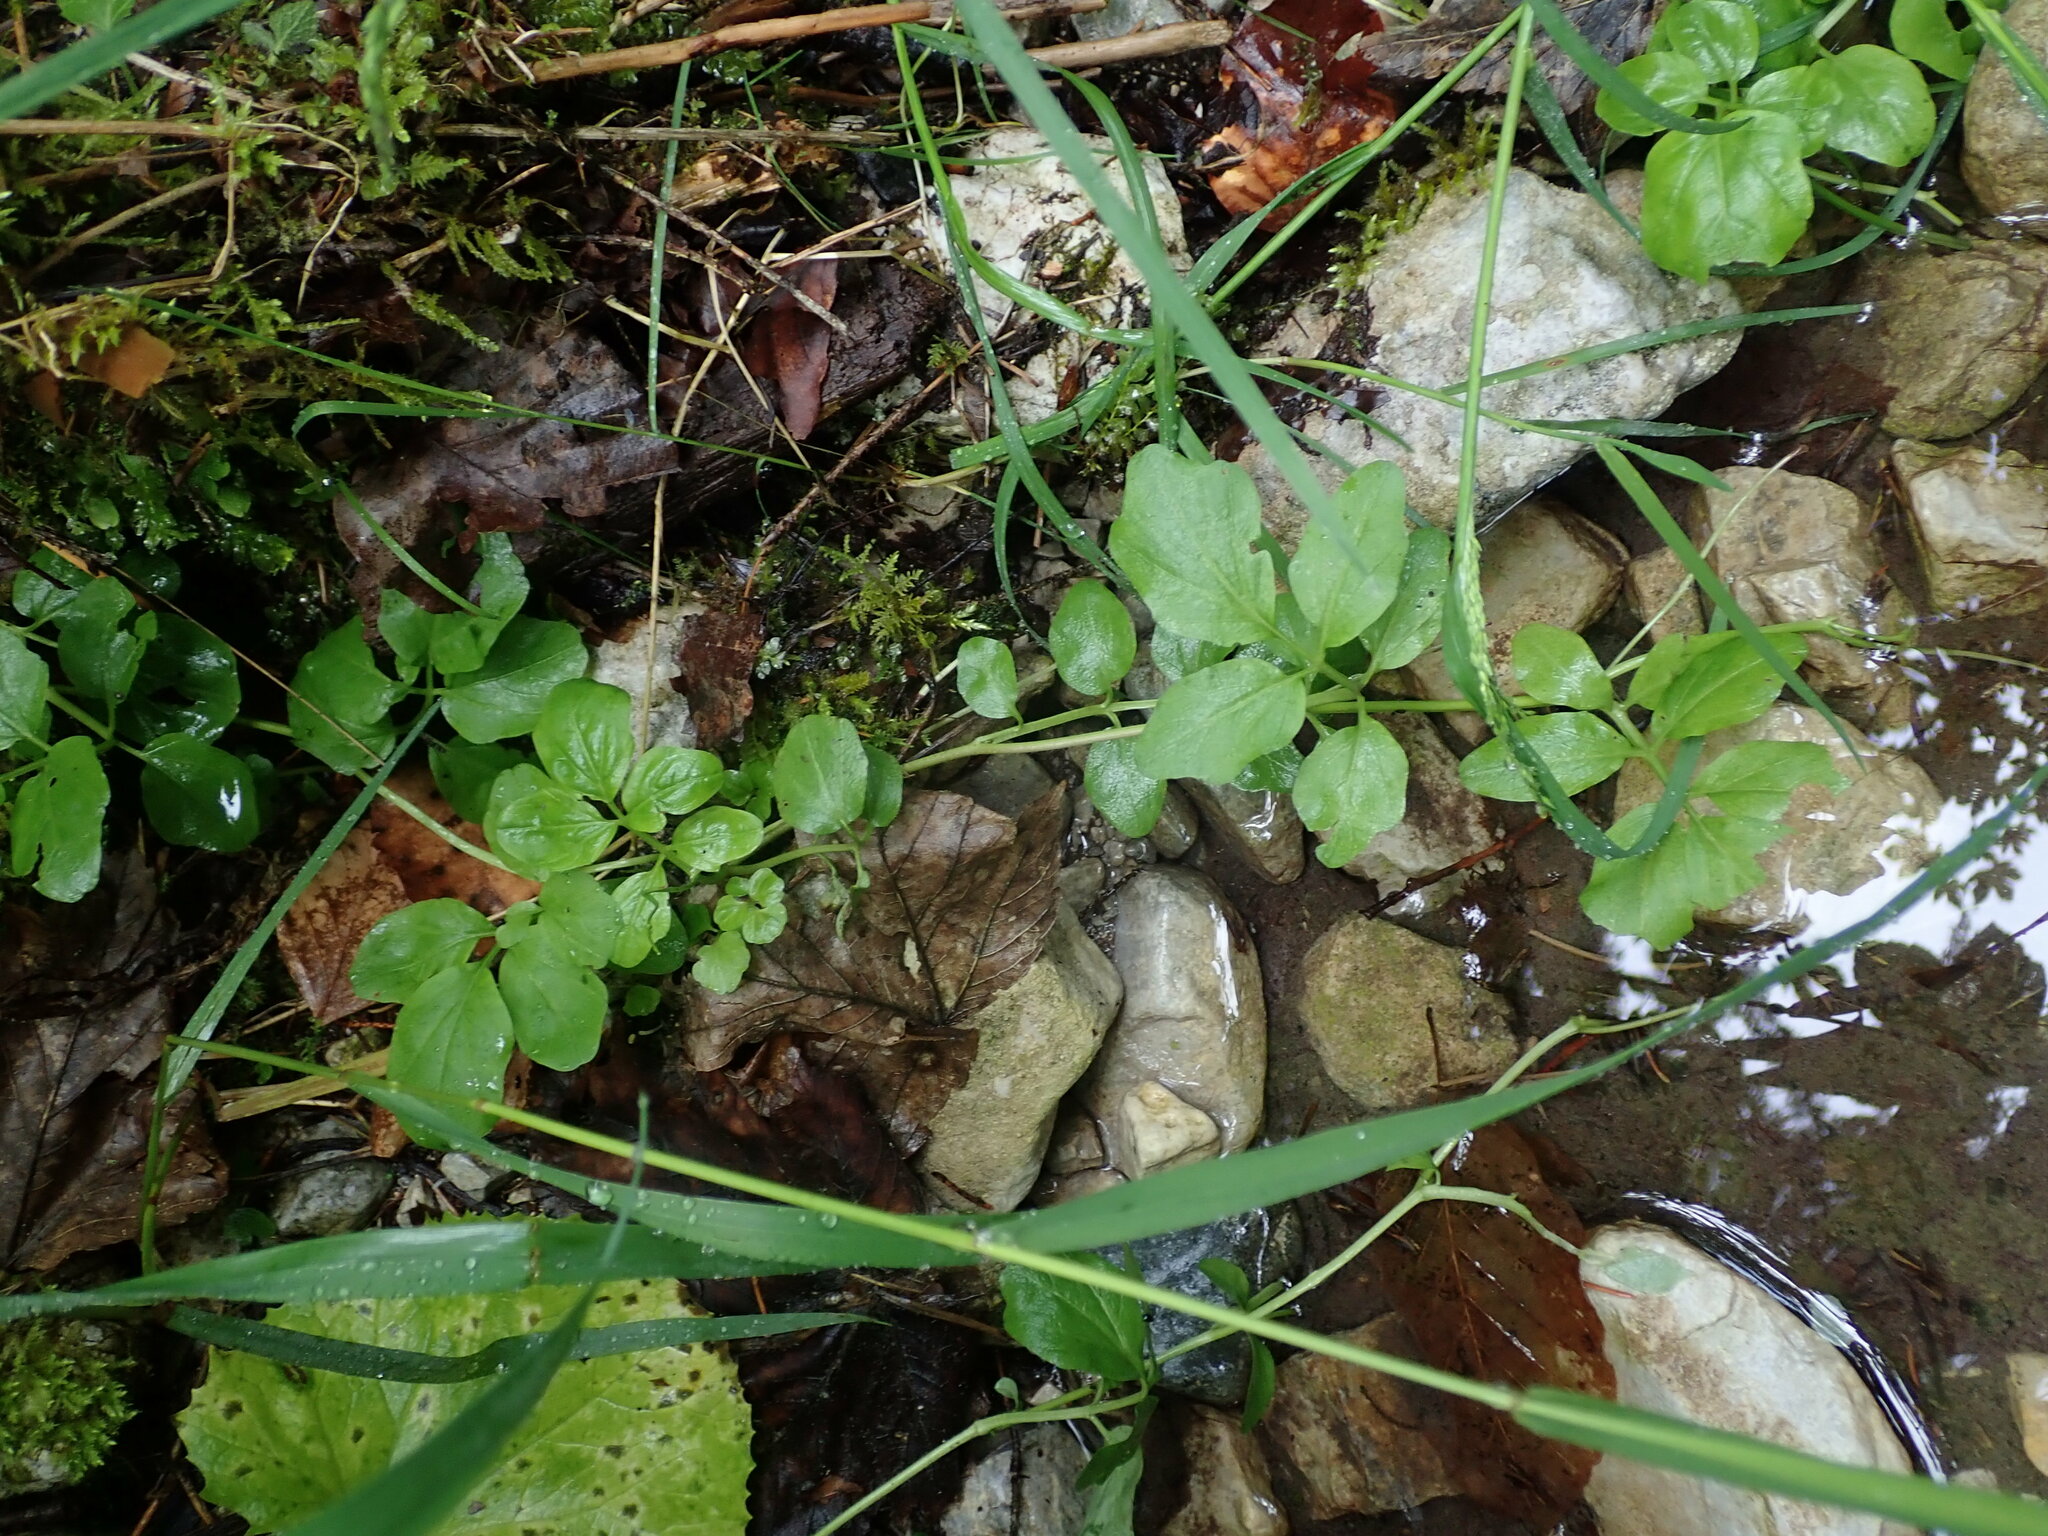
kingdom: Plantae
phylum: Tracheophyta
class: Magnoliopsida
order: Brassicales
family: Brassicaceae
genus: Cardamine
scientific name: Cardamine amara
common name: Large bitter-cress
